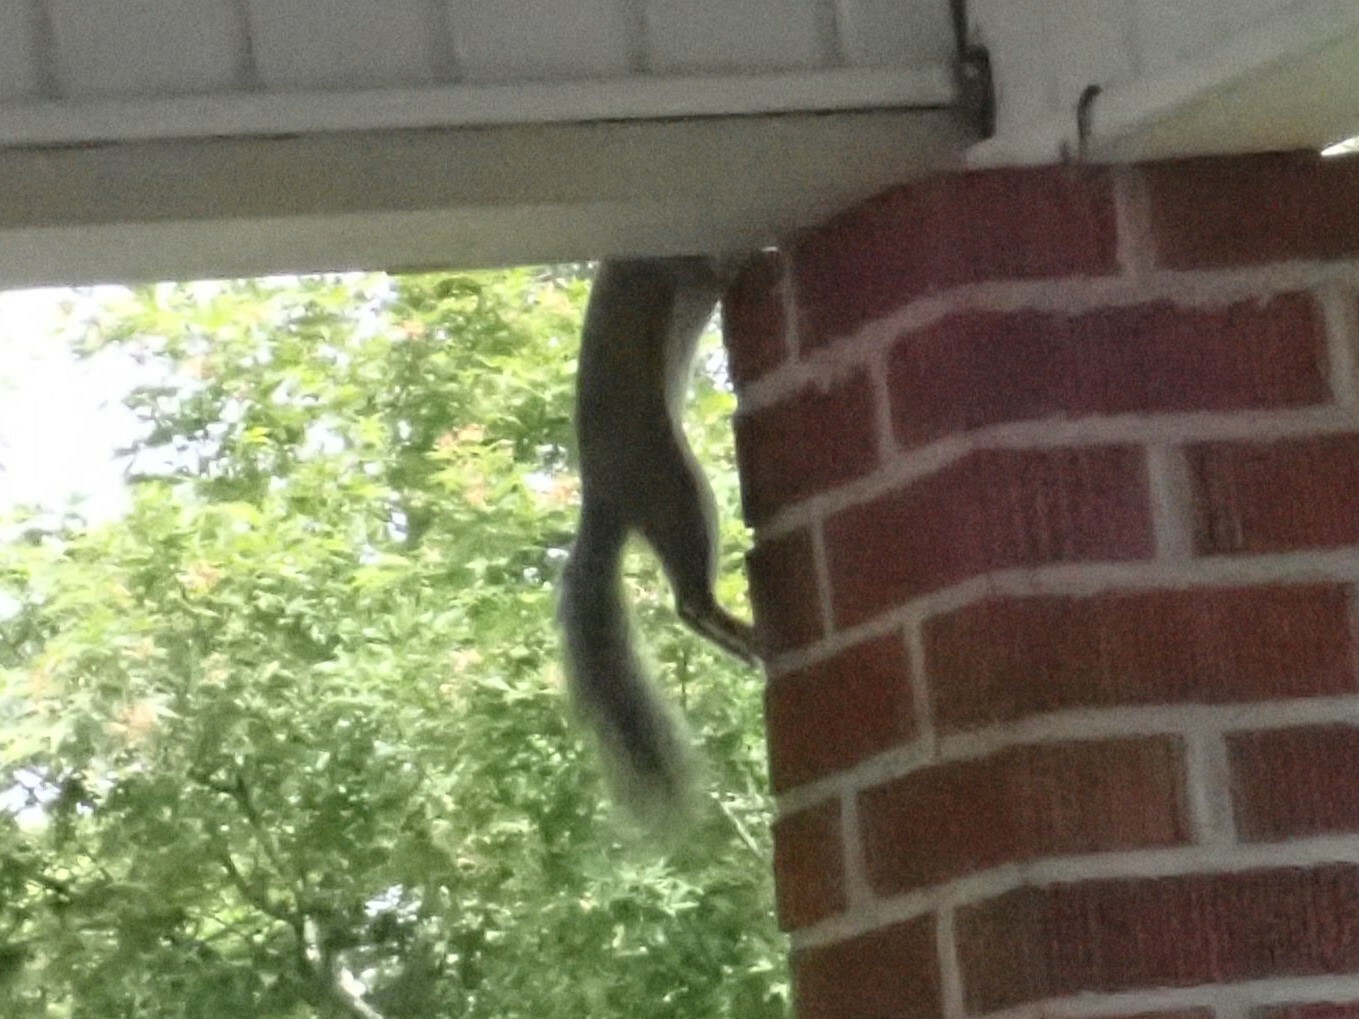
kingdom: Animalia
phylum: Chordata
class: Mammalia
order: Rodentia
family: Sciuridae
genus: Sciurus
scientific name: Sciurus carolinensis
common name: Eastern gray squirrel
